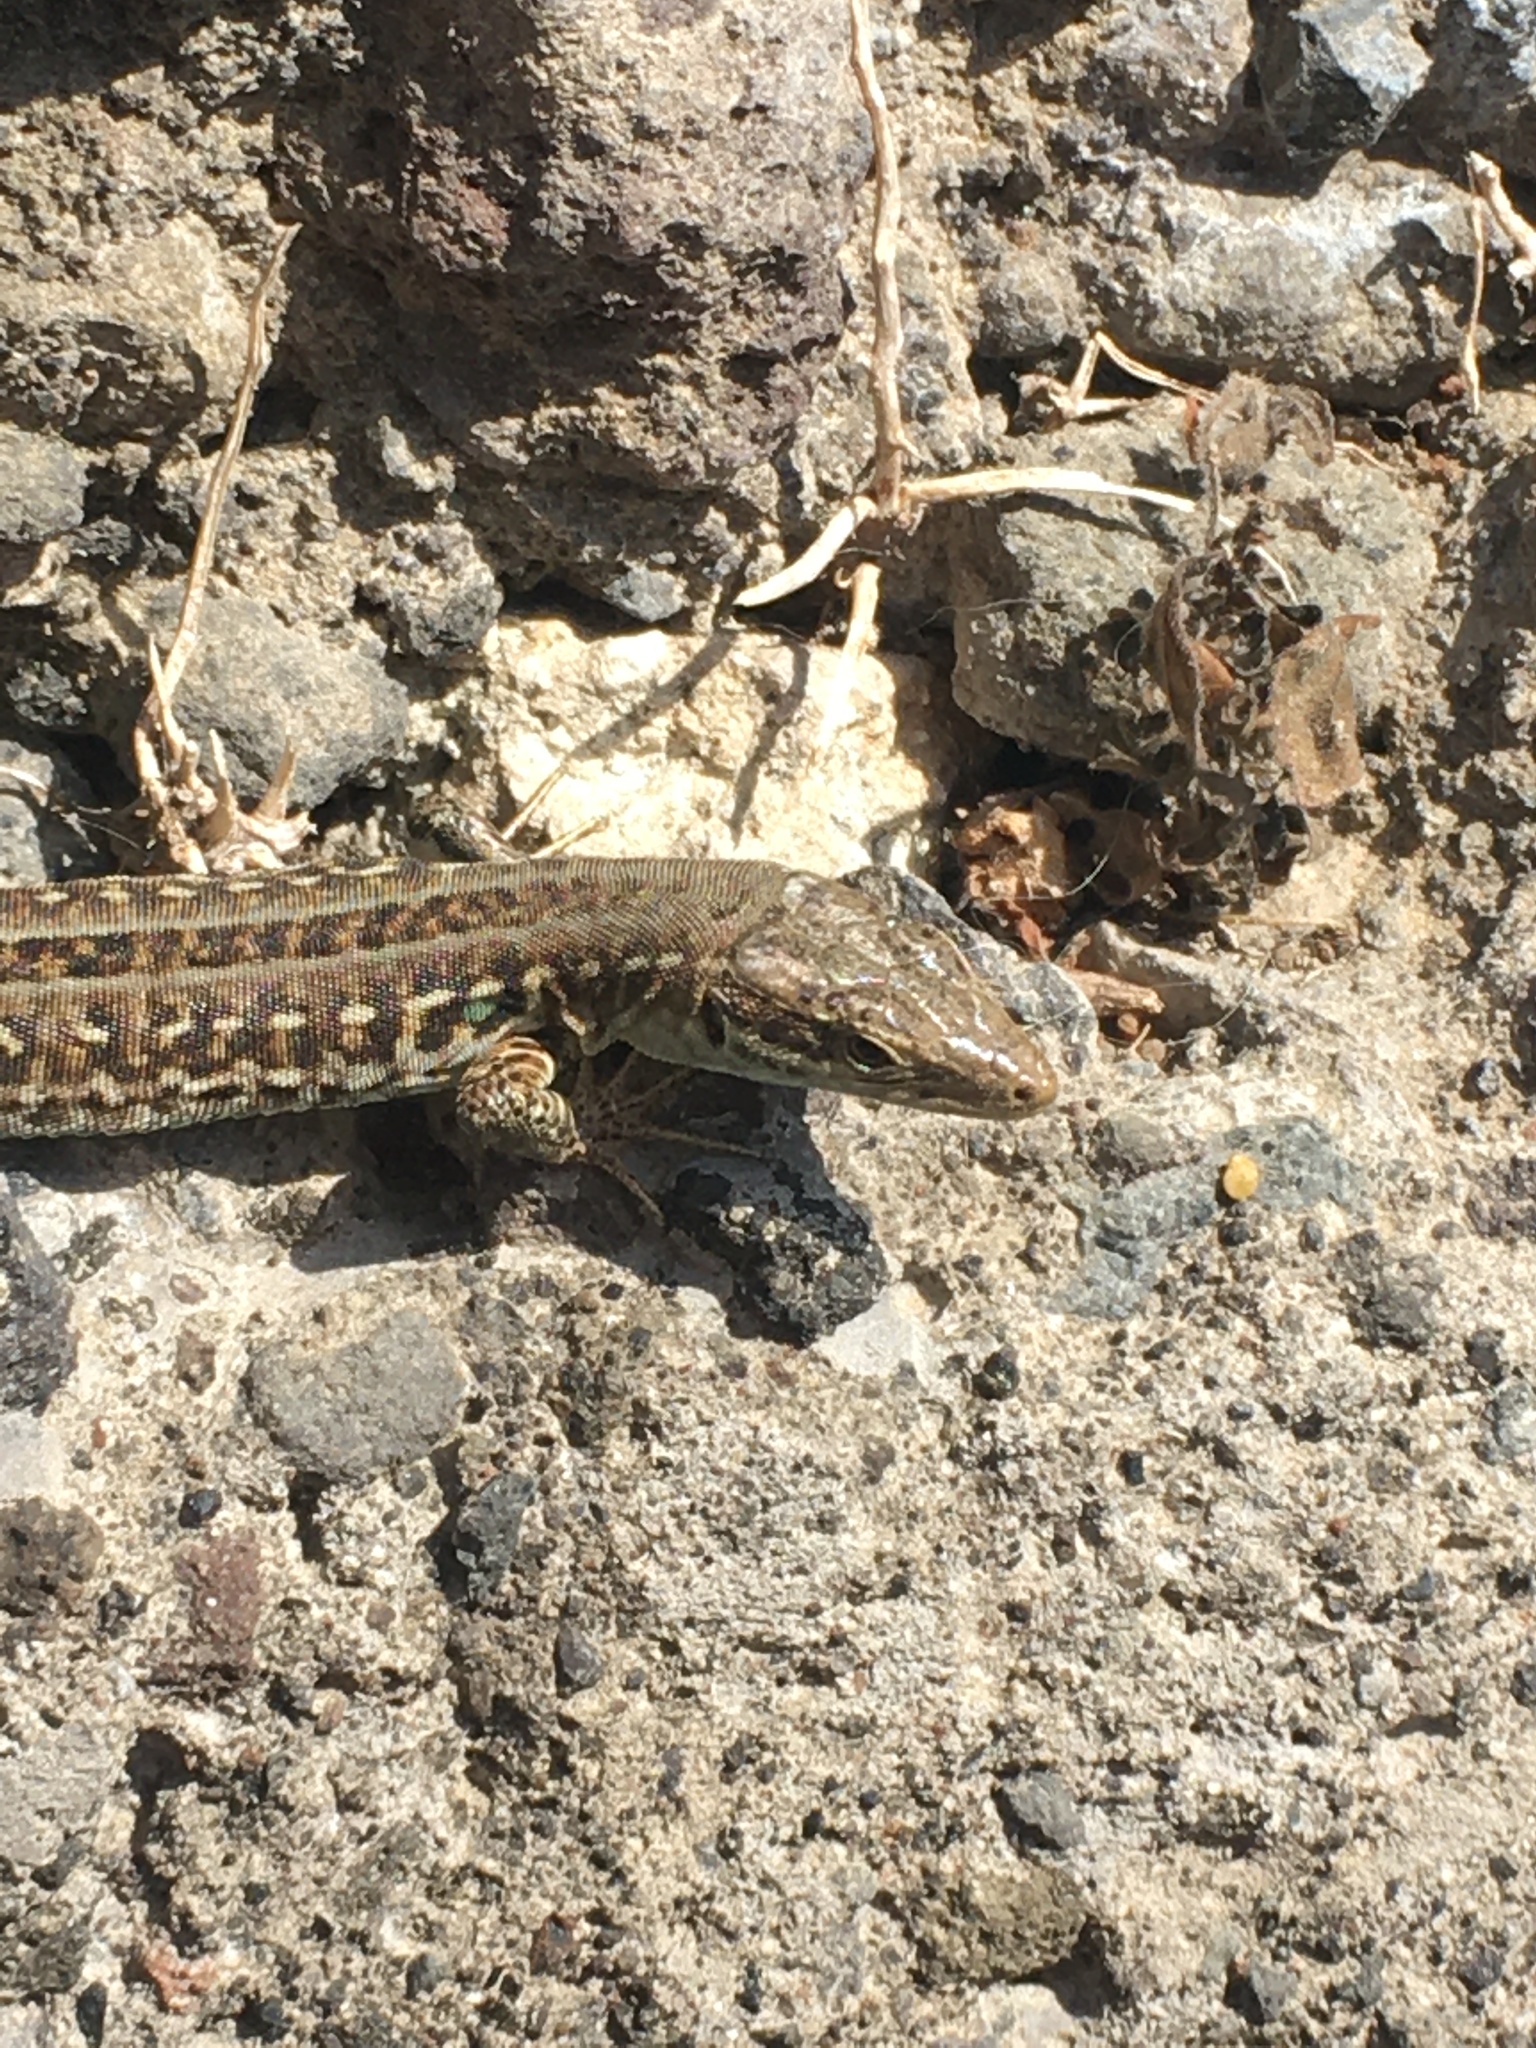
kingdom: Animalia
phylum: Chordata
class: Squamata
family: Lacertidae
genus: Podarcis
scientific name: Podarcis siculus
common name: Italian wall lizard
